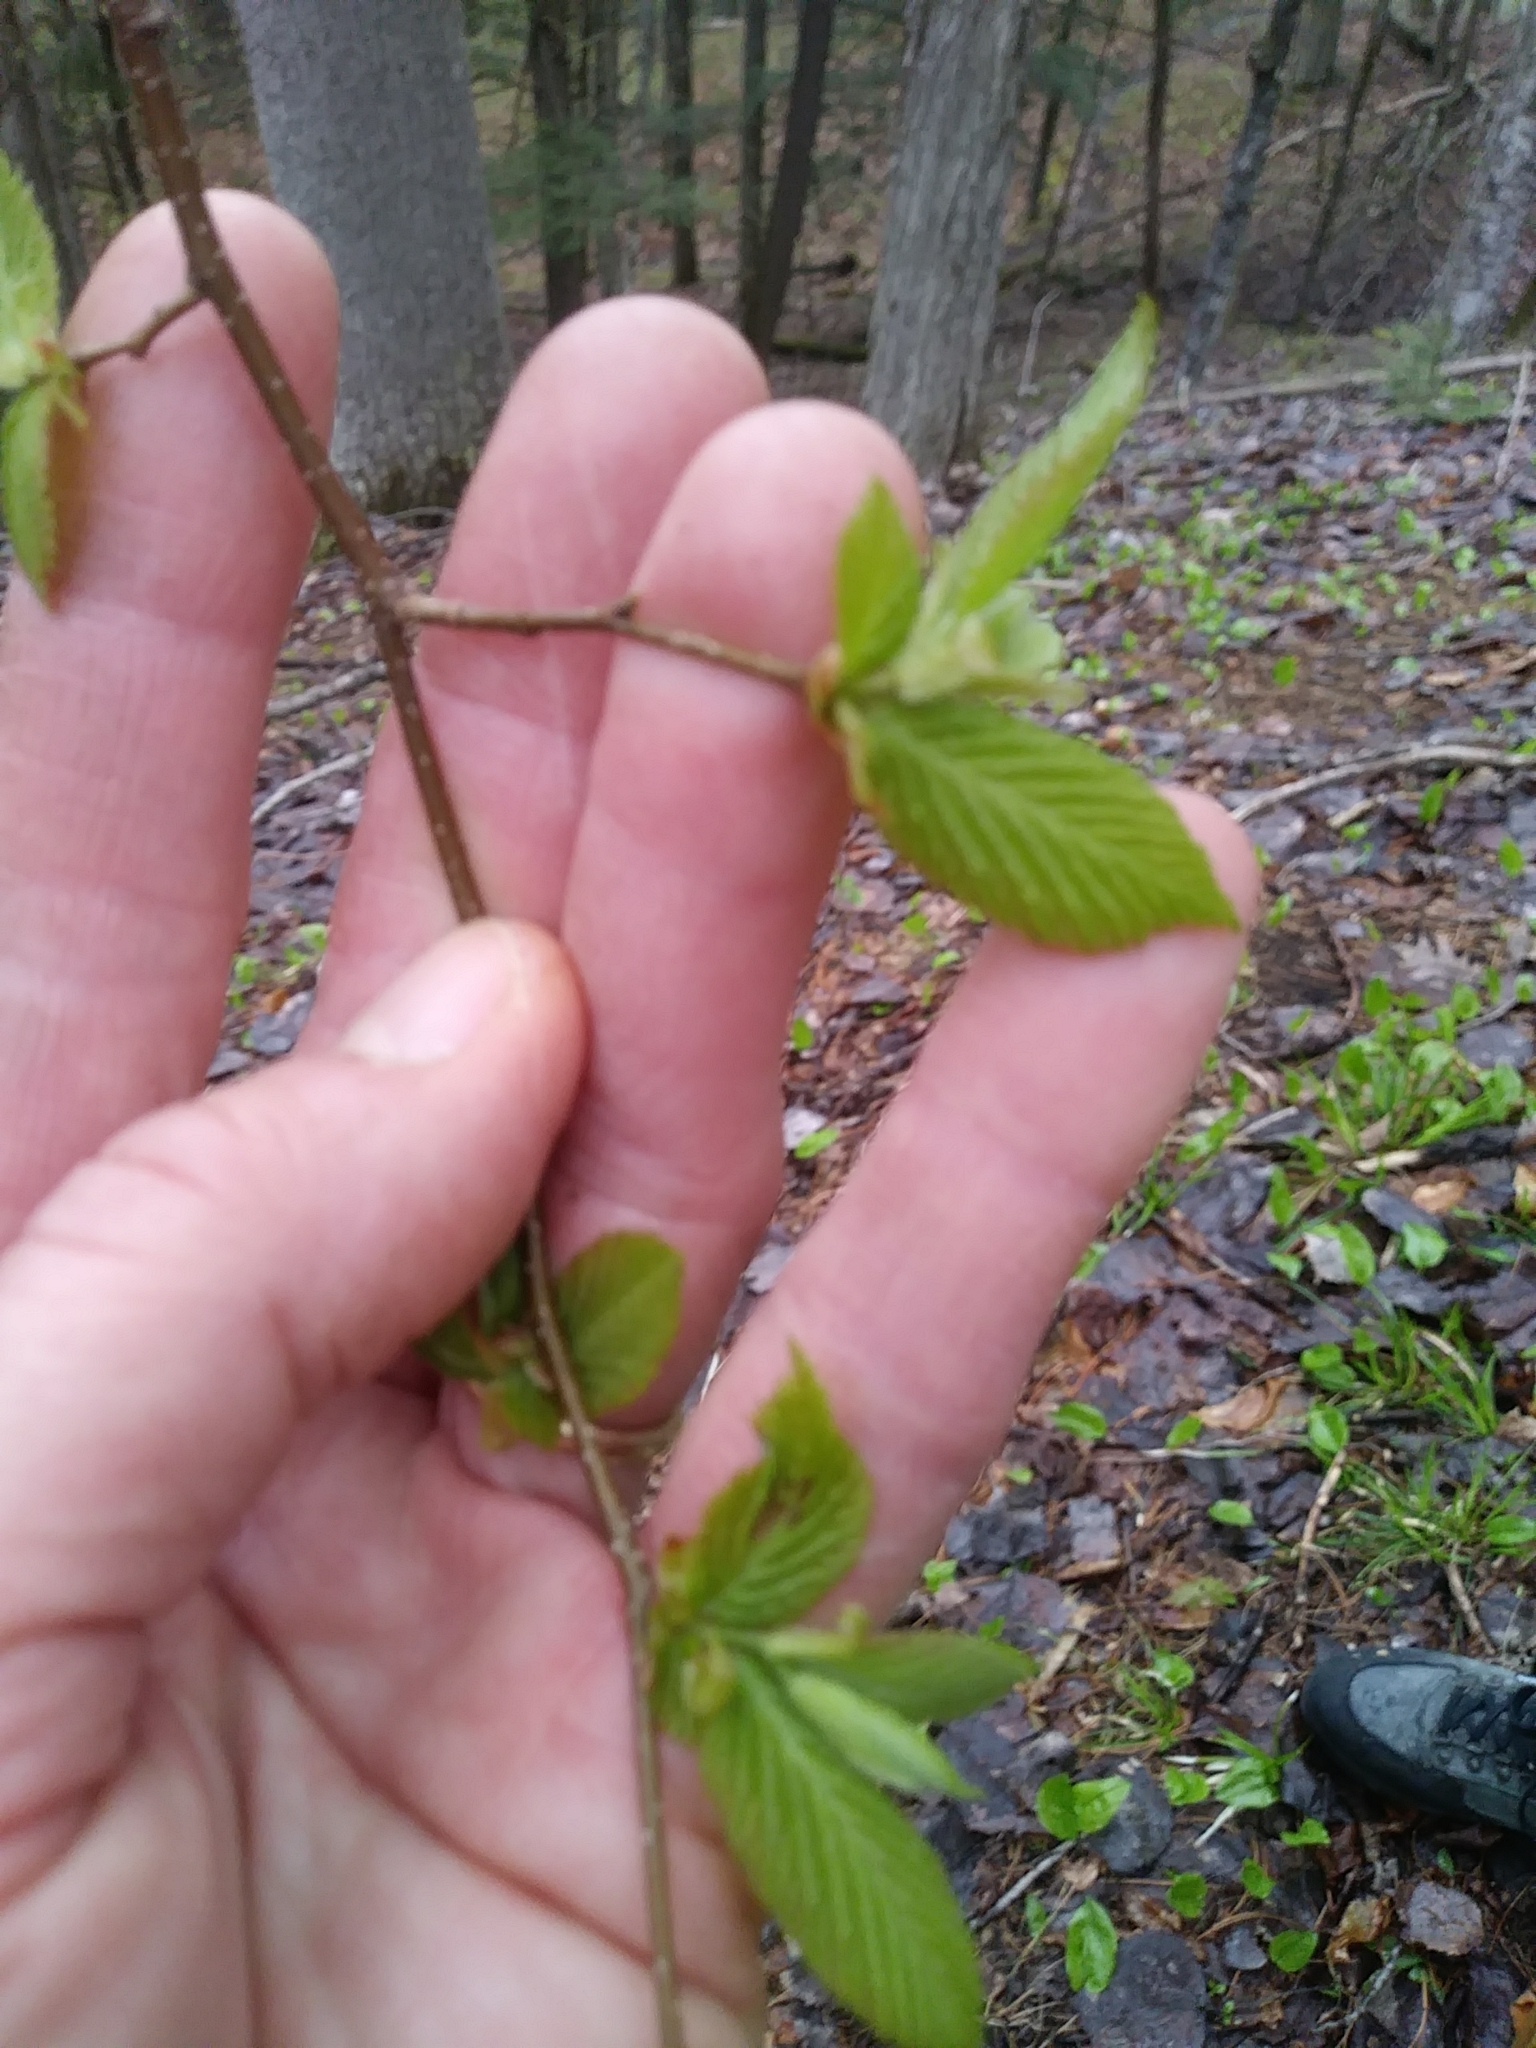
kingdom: Plantae
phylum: Tracheophyta
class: Magnoliopsida
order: Fagales
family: Betulaceae
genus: Ostrya
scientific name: Ostrya virginiana
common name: Ironwood
